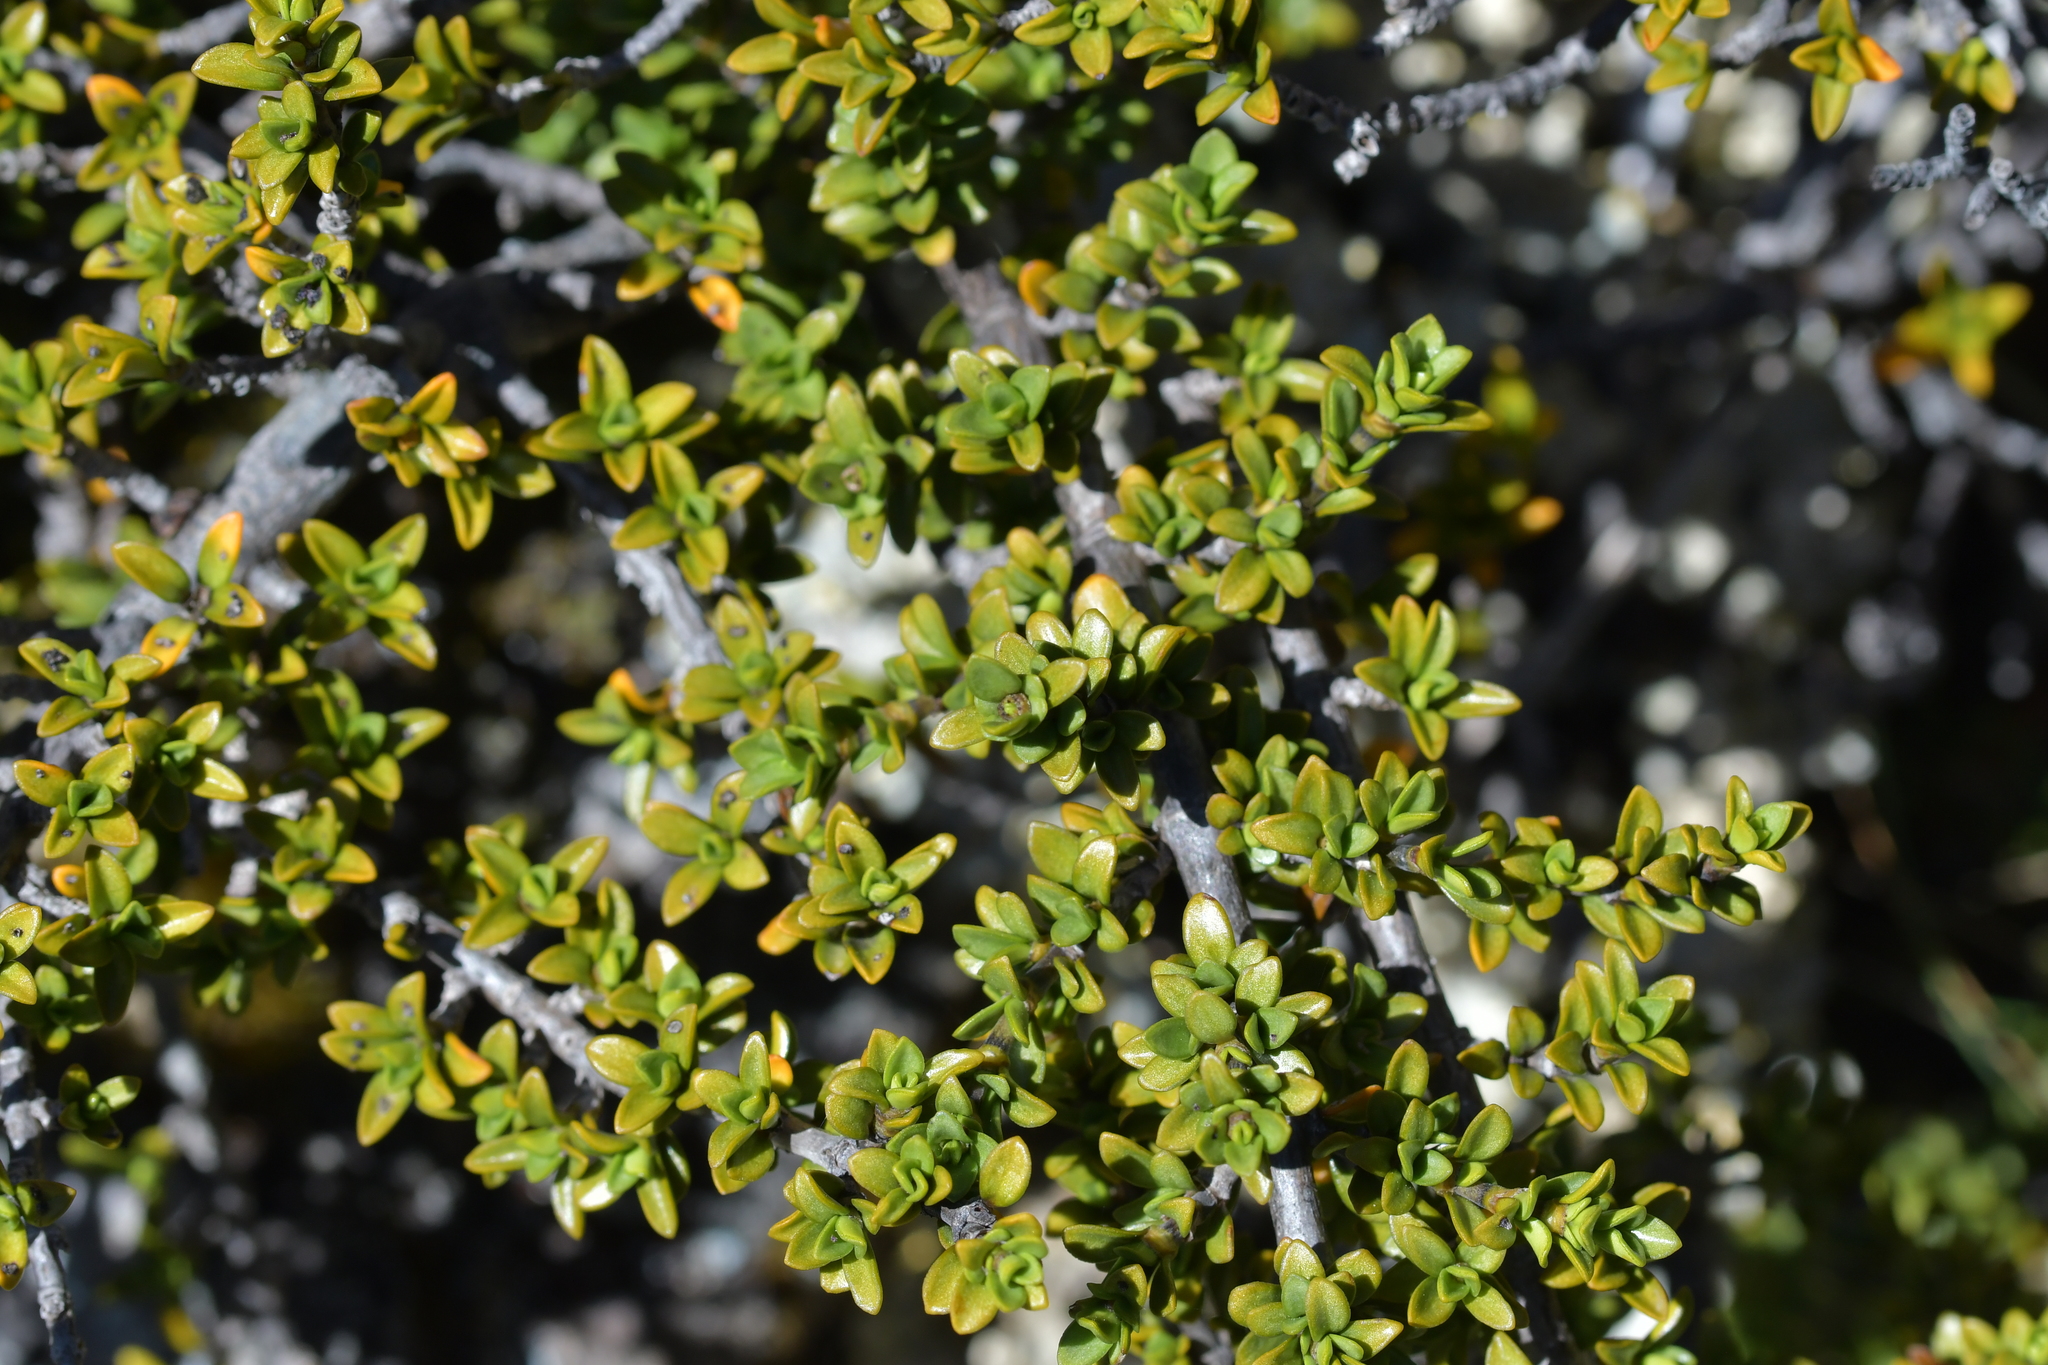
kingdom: Plantae
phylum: Tracheophyta
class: Magnoliopsida
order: Gentianales
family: Rubiaceae
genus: Coprosma
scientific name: Coprosma fowerakeri
